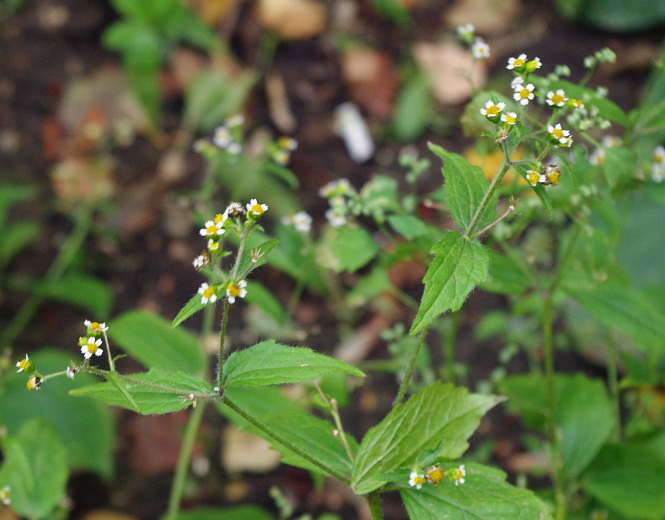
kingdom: Plantae
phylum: Tracheophyta
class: Magnoliopsida
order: Asterales
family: Asteraceae
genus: Galinsoga
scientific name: Galinsoga quadriradiata
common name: Shaggy soldier
